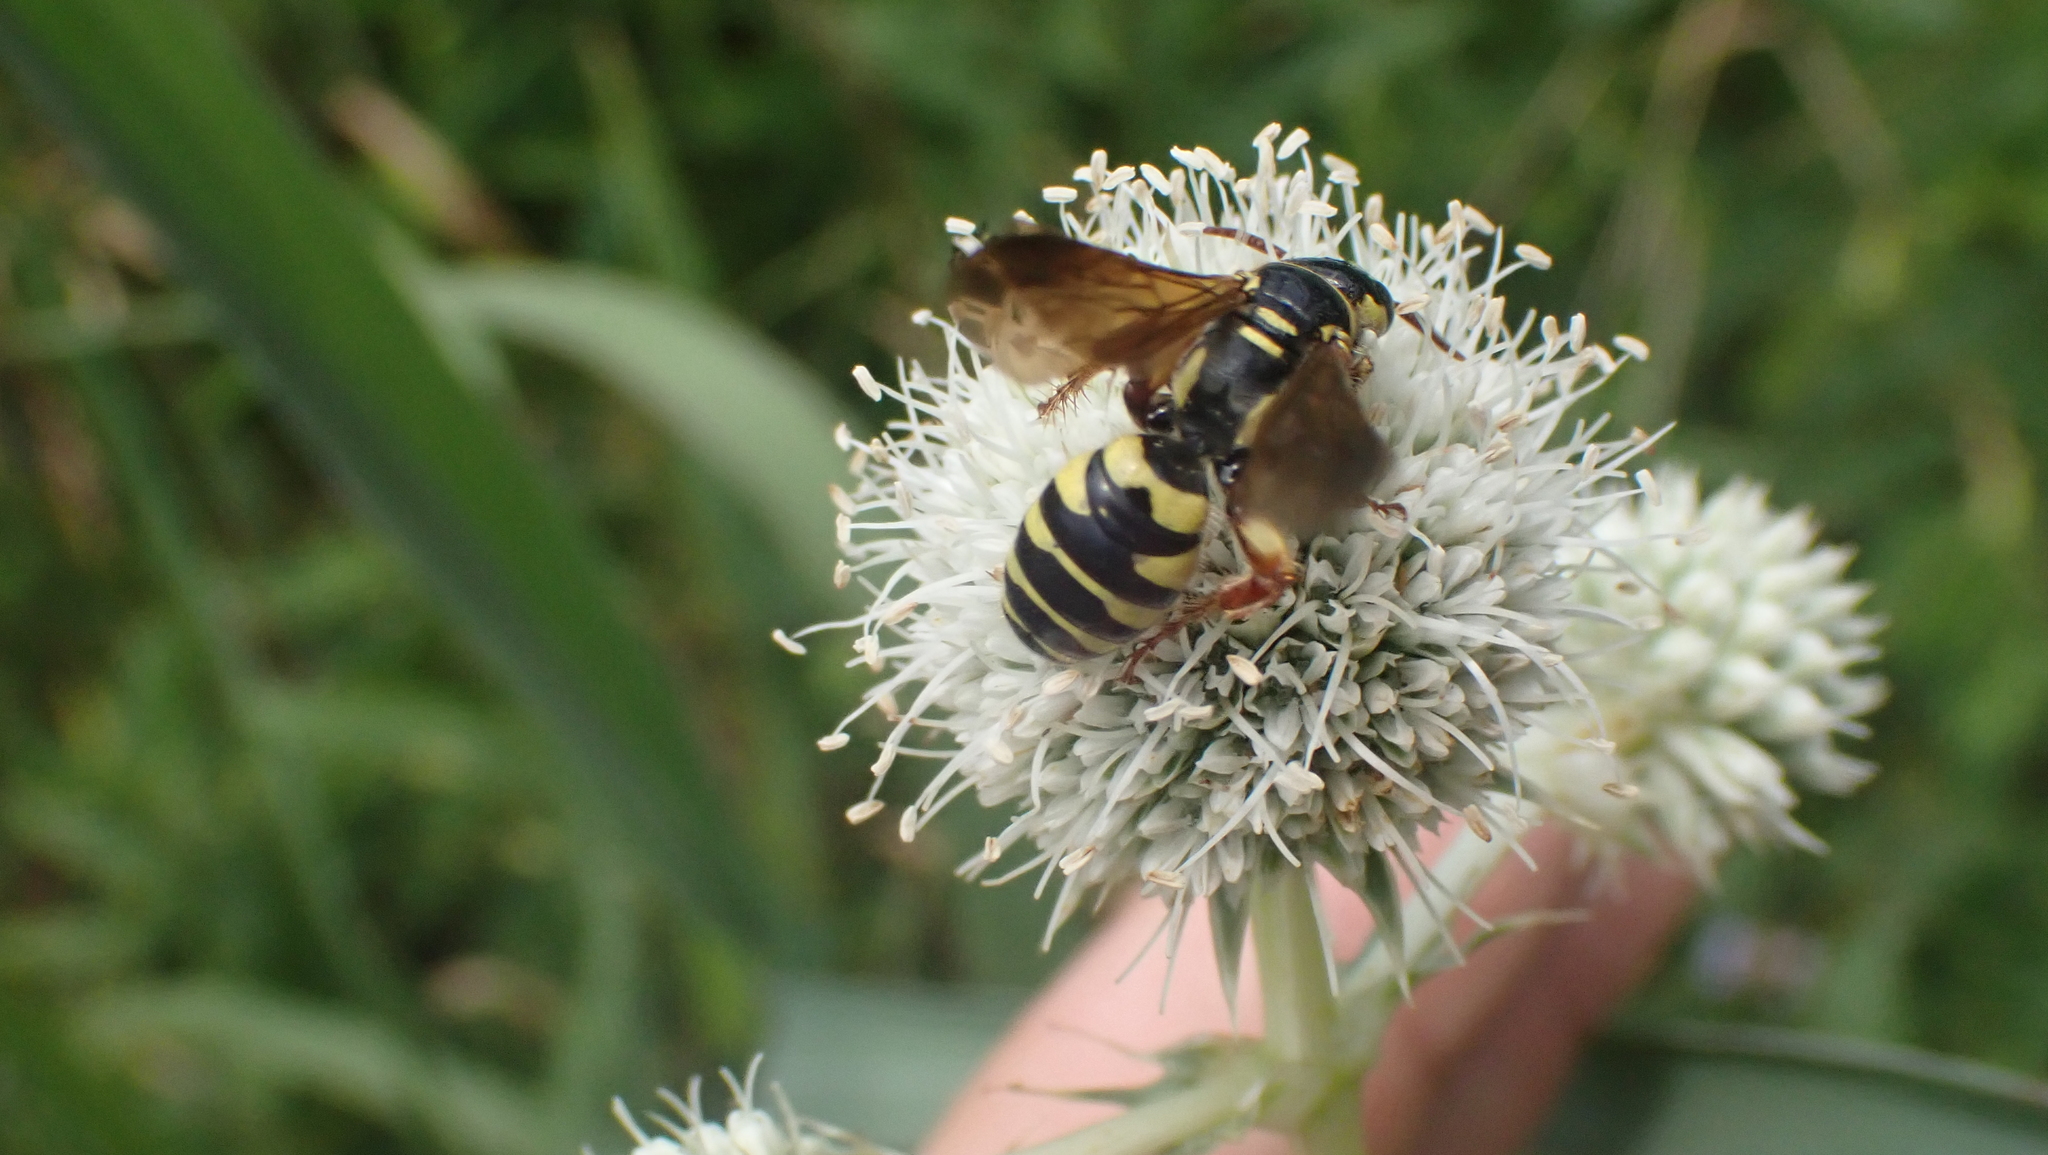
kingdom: Animalia
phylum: Arthropoda
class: Insecta
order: Hymenoptera
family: Tiphiidae
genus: Myzinum
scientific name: Myzinum quinquecinctum
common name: Five-banded thynnid wasp
